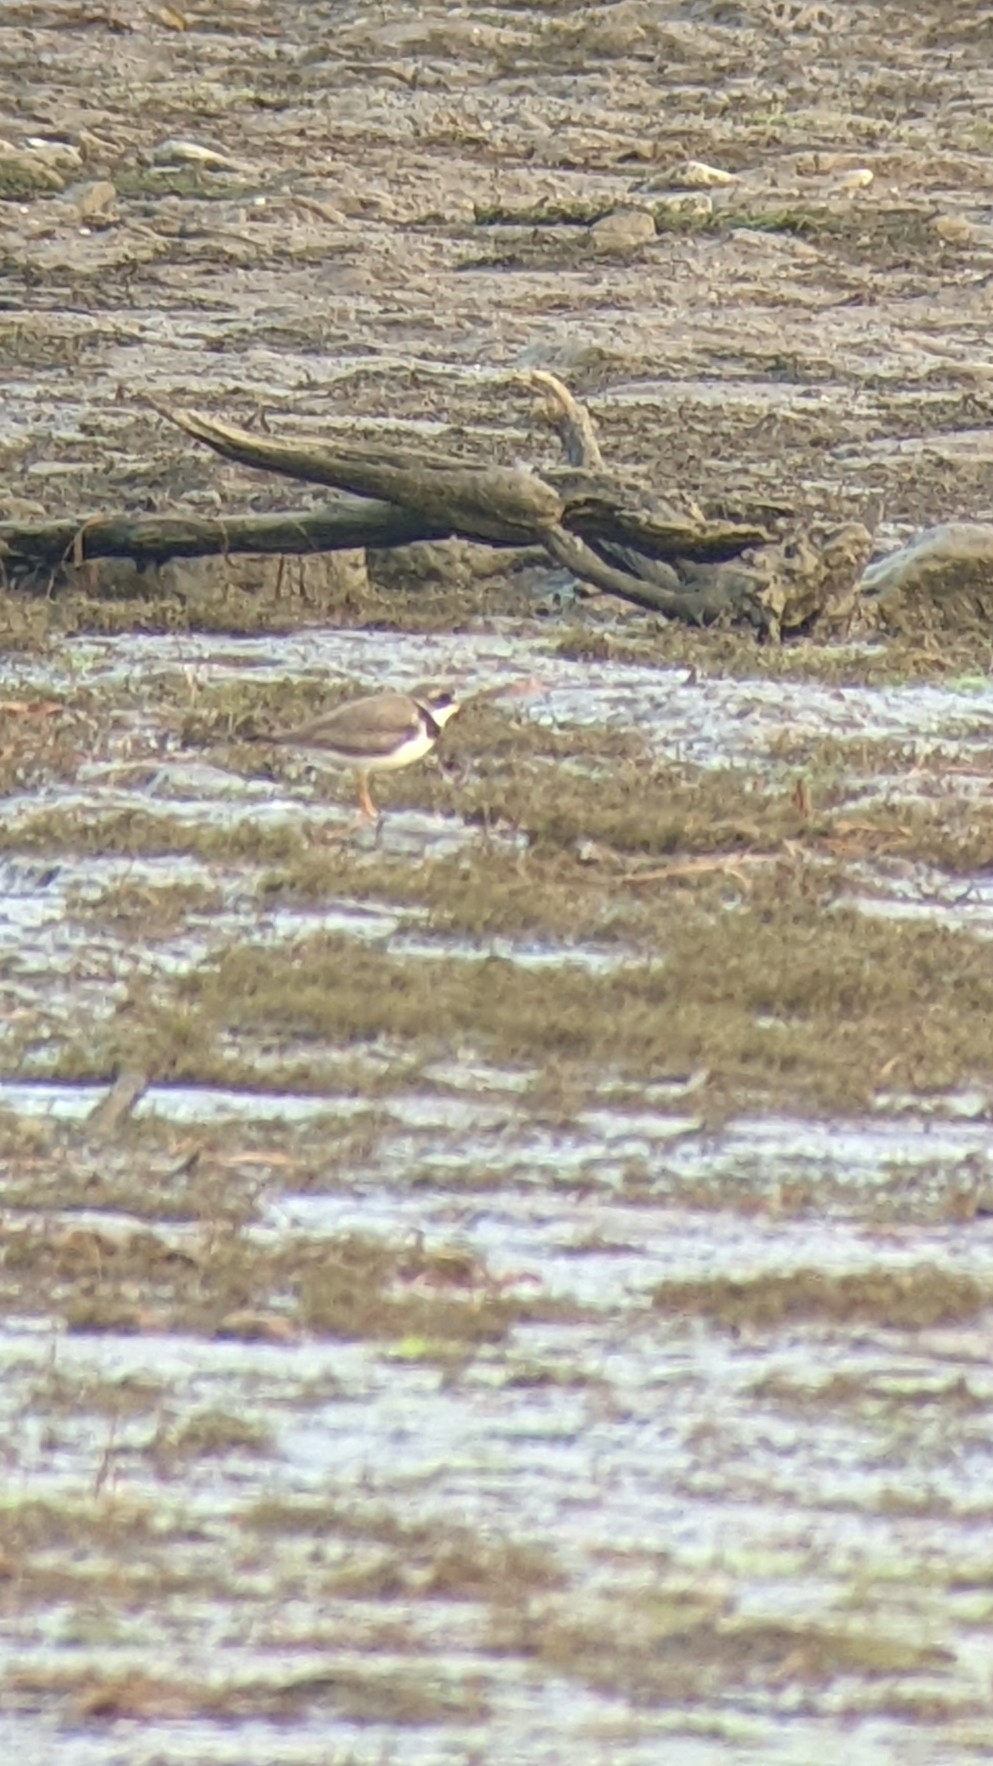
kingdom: Animalia
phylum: Chordata
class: Aves
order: Charadriiformes
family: Charadriidae
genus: Charadrius
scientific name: Charadrius semipalmatus
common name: Semipalmated plover
